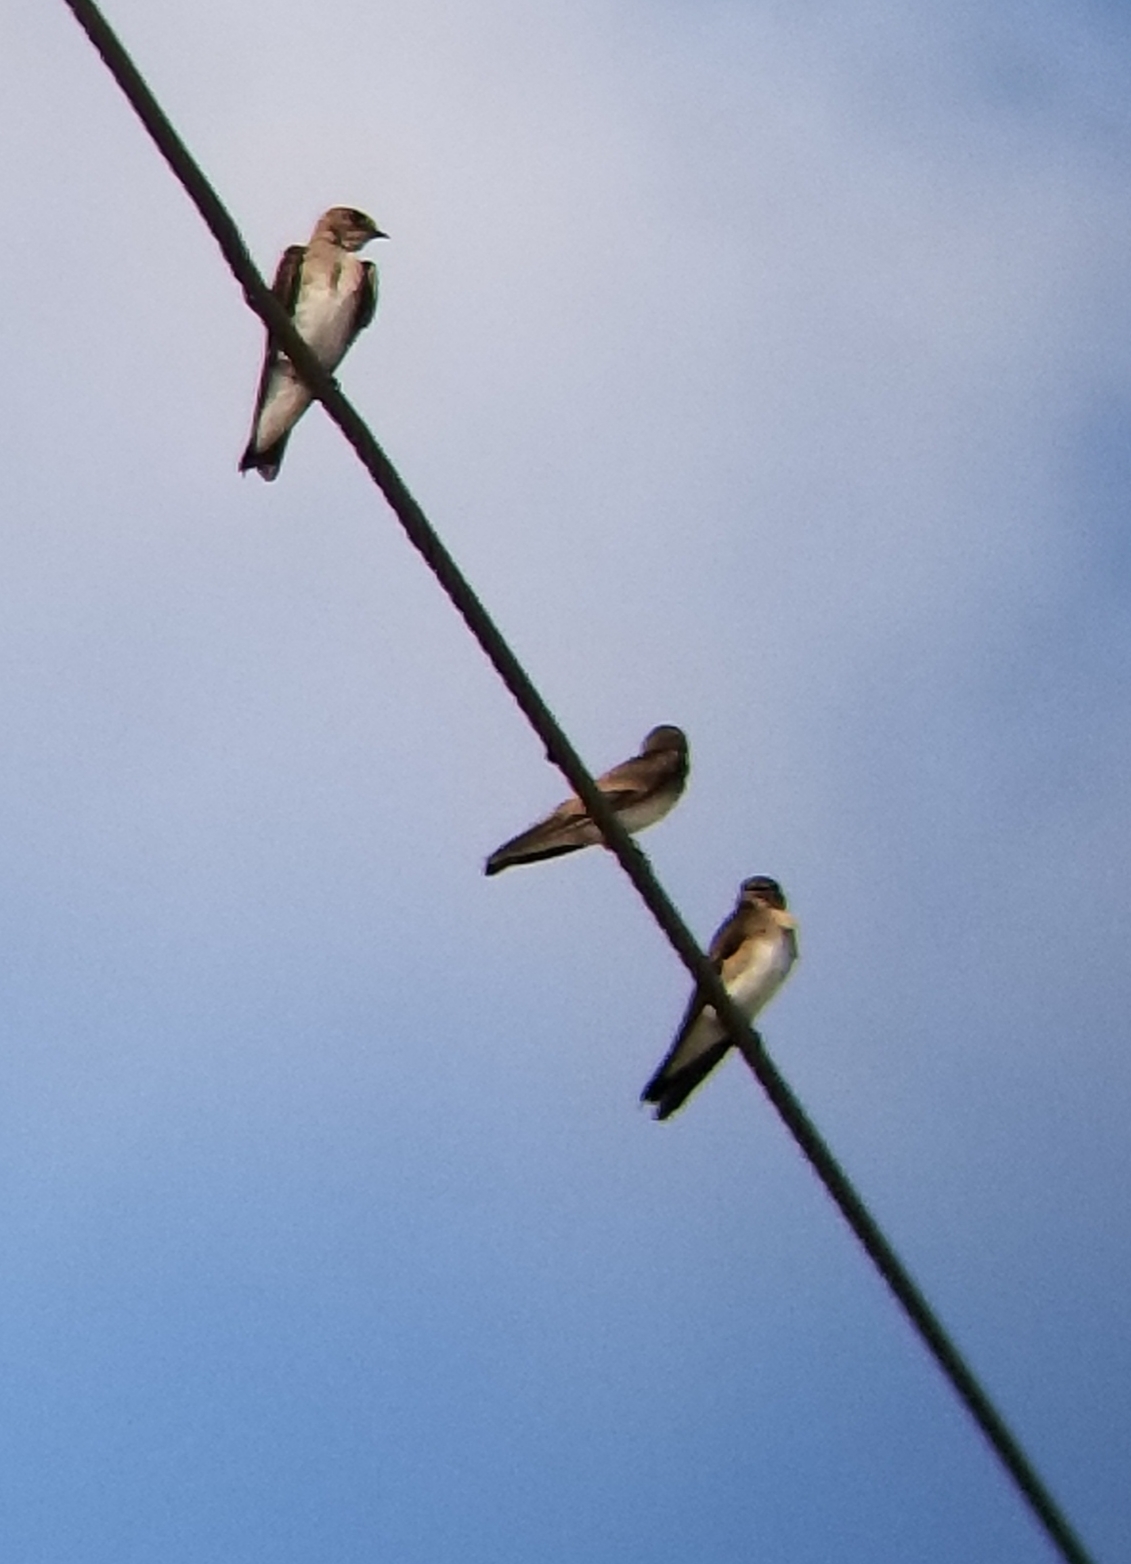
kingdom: Animalia
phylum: Chordata
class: Aves
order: Passeriformes
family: Hirundinidae
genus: Stelgidopteryx
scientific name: Stelgidopteryx serripennis
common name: Northern rough-winged swallow
